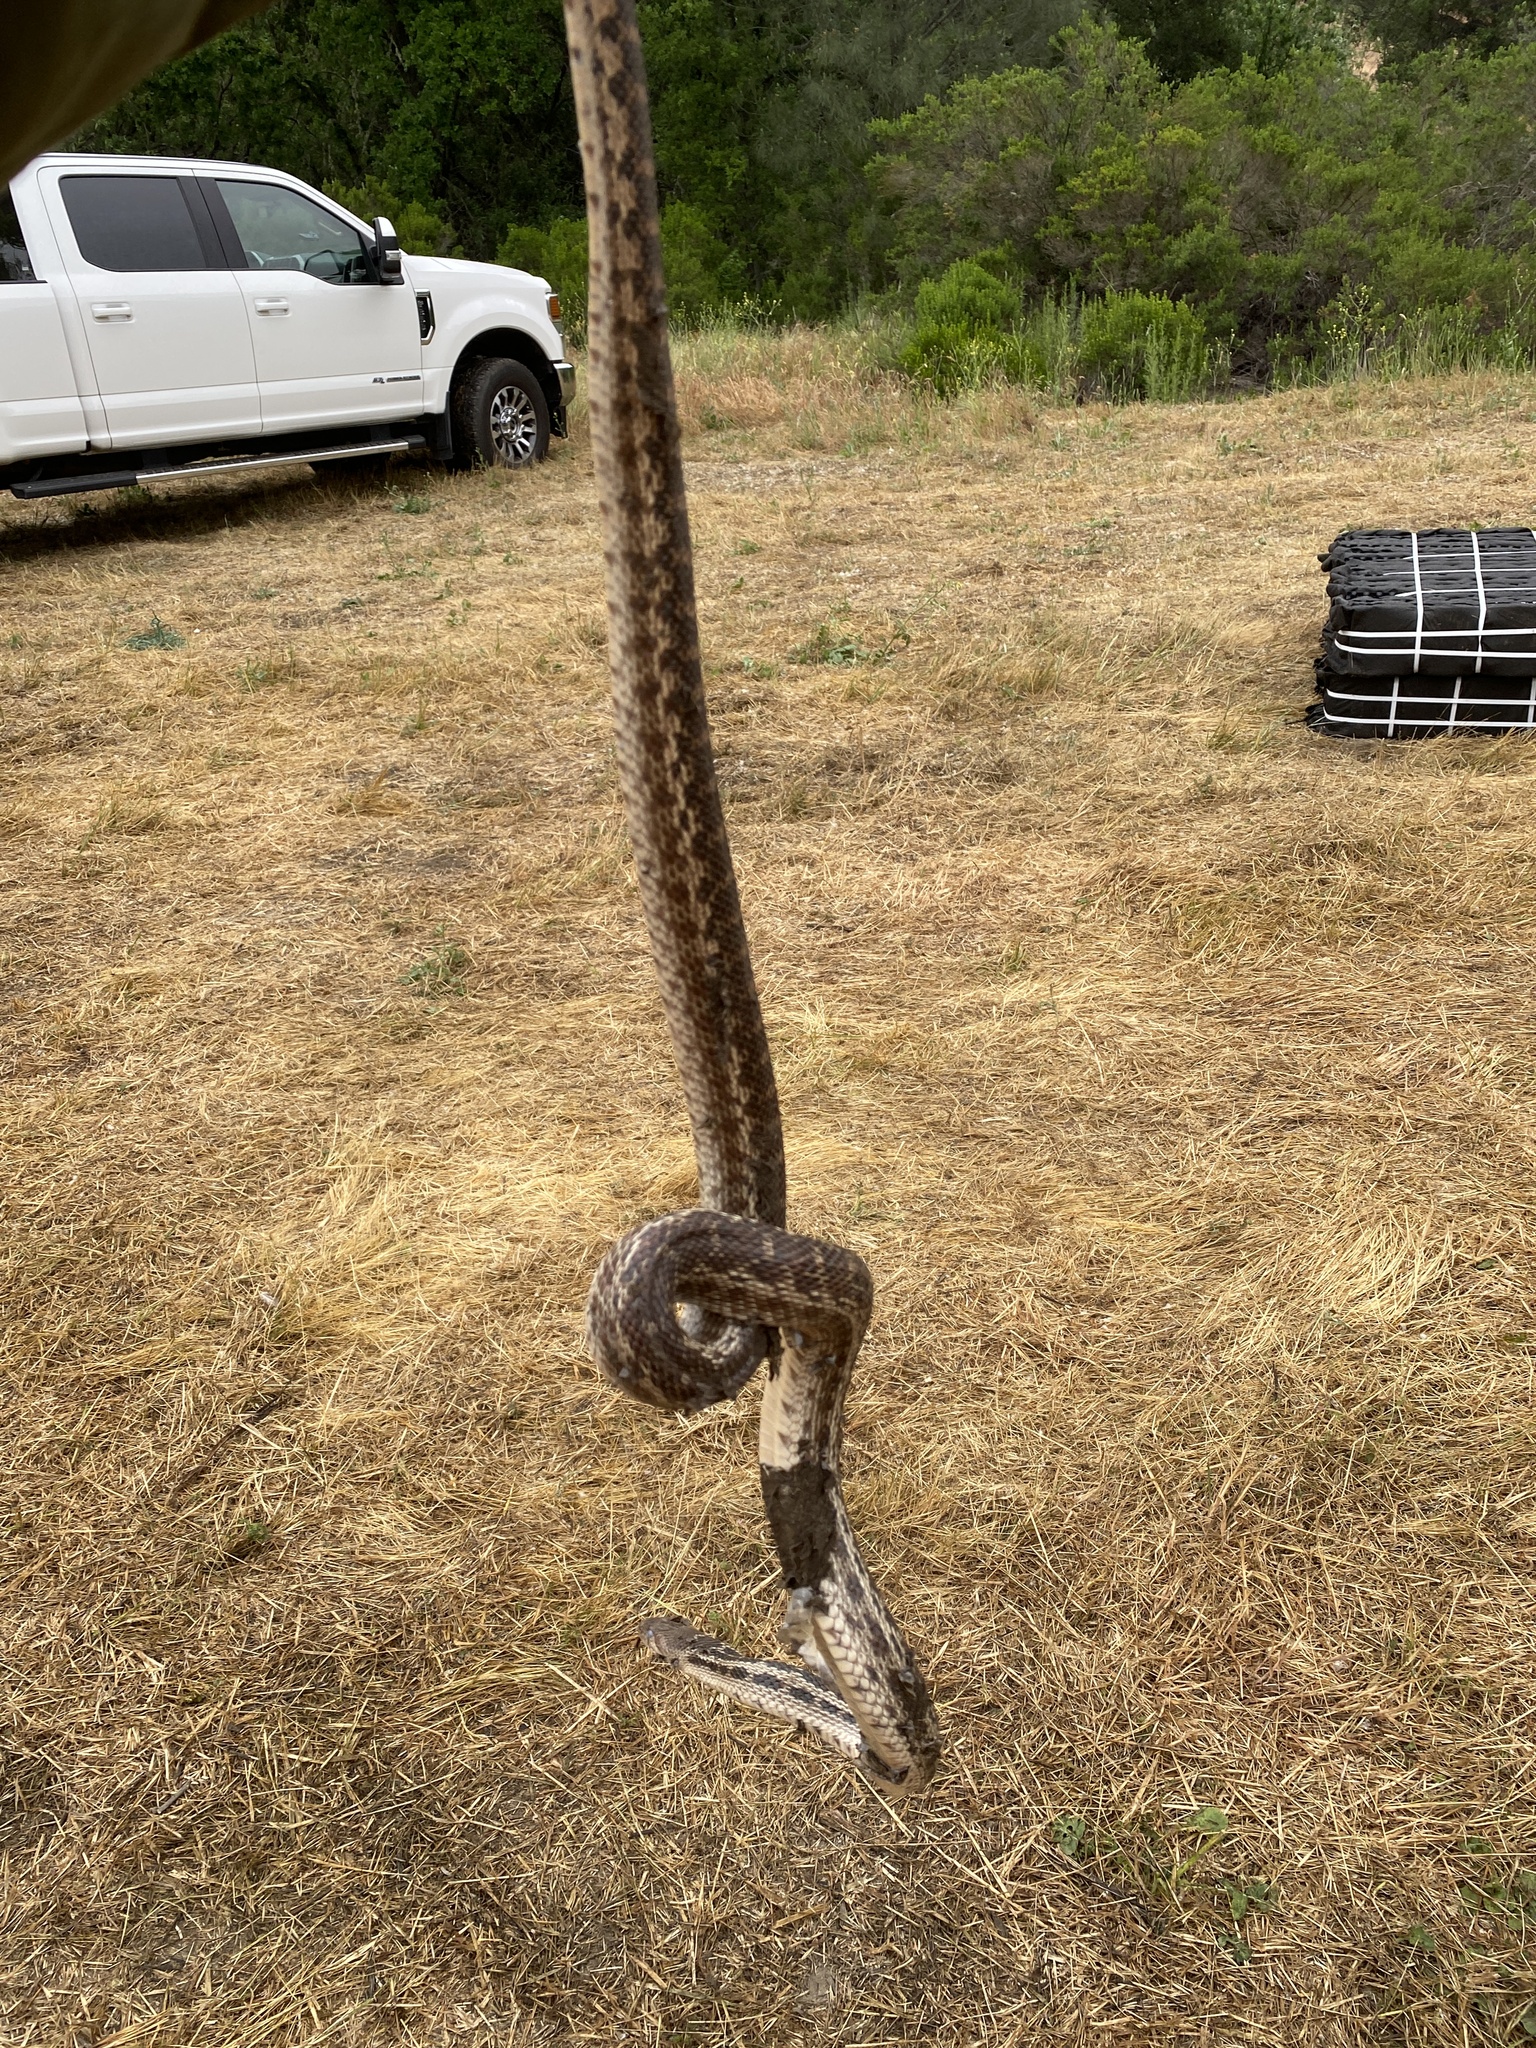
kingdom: Animalia
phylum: Chordata
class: Squamata
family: Colubridae
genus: Pituophis
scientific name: Pituophis catenifer
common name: Gopher snake
